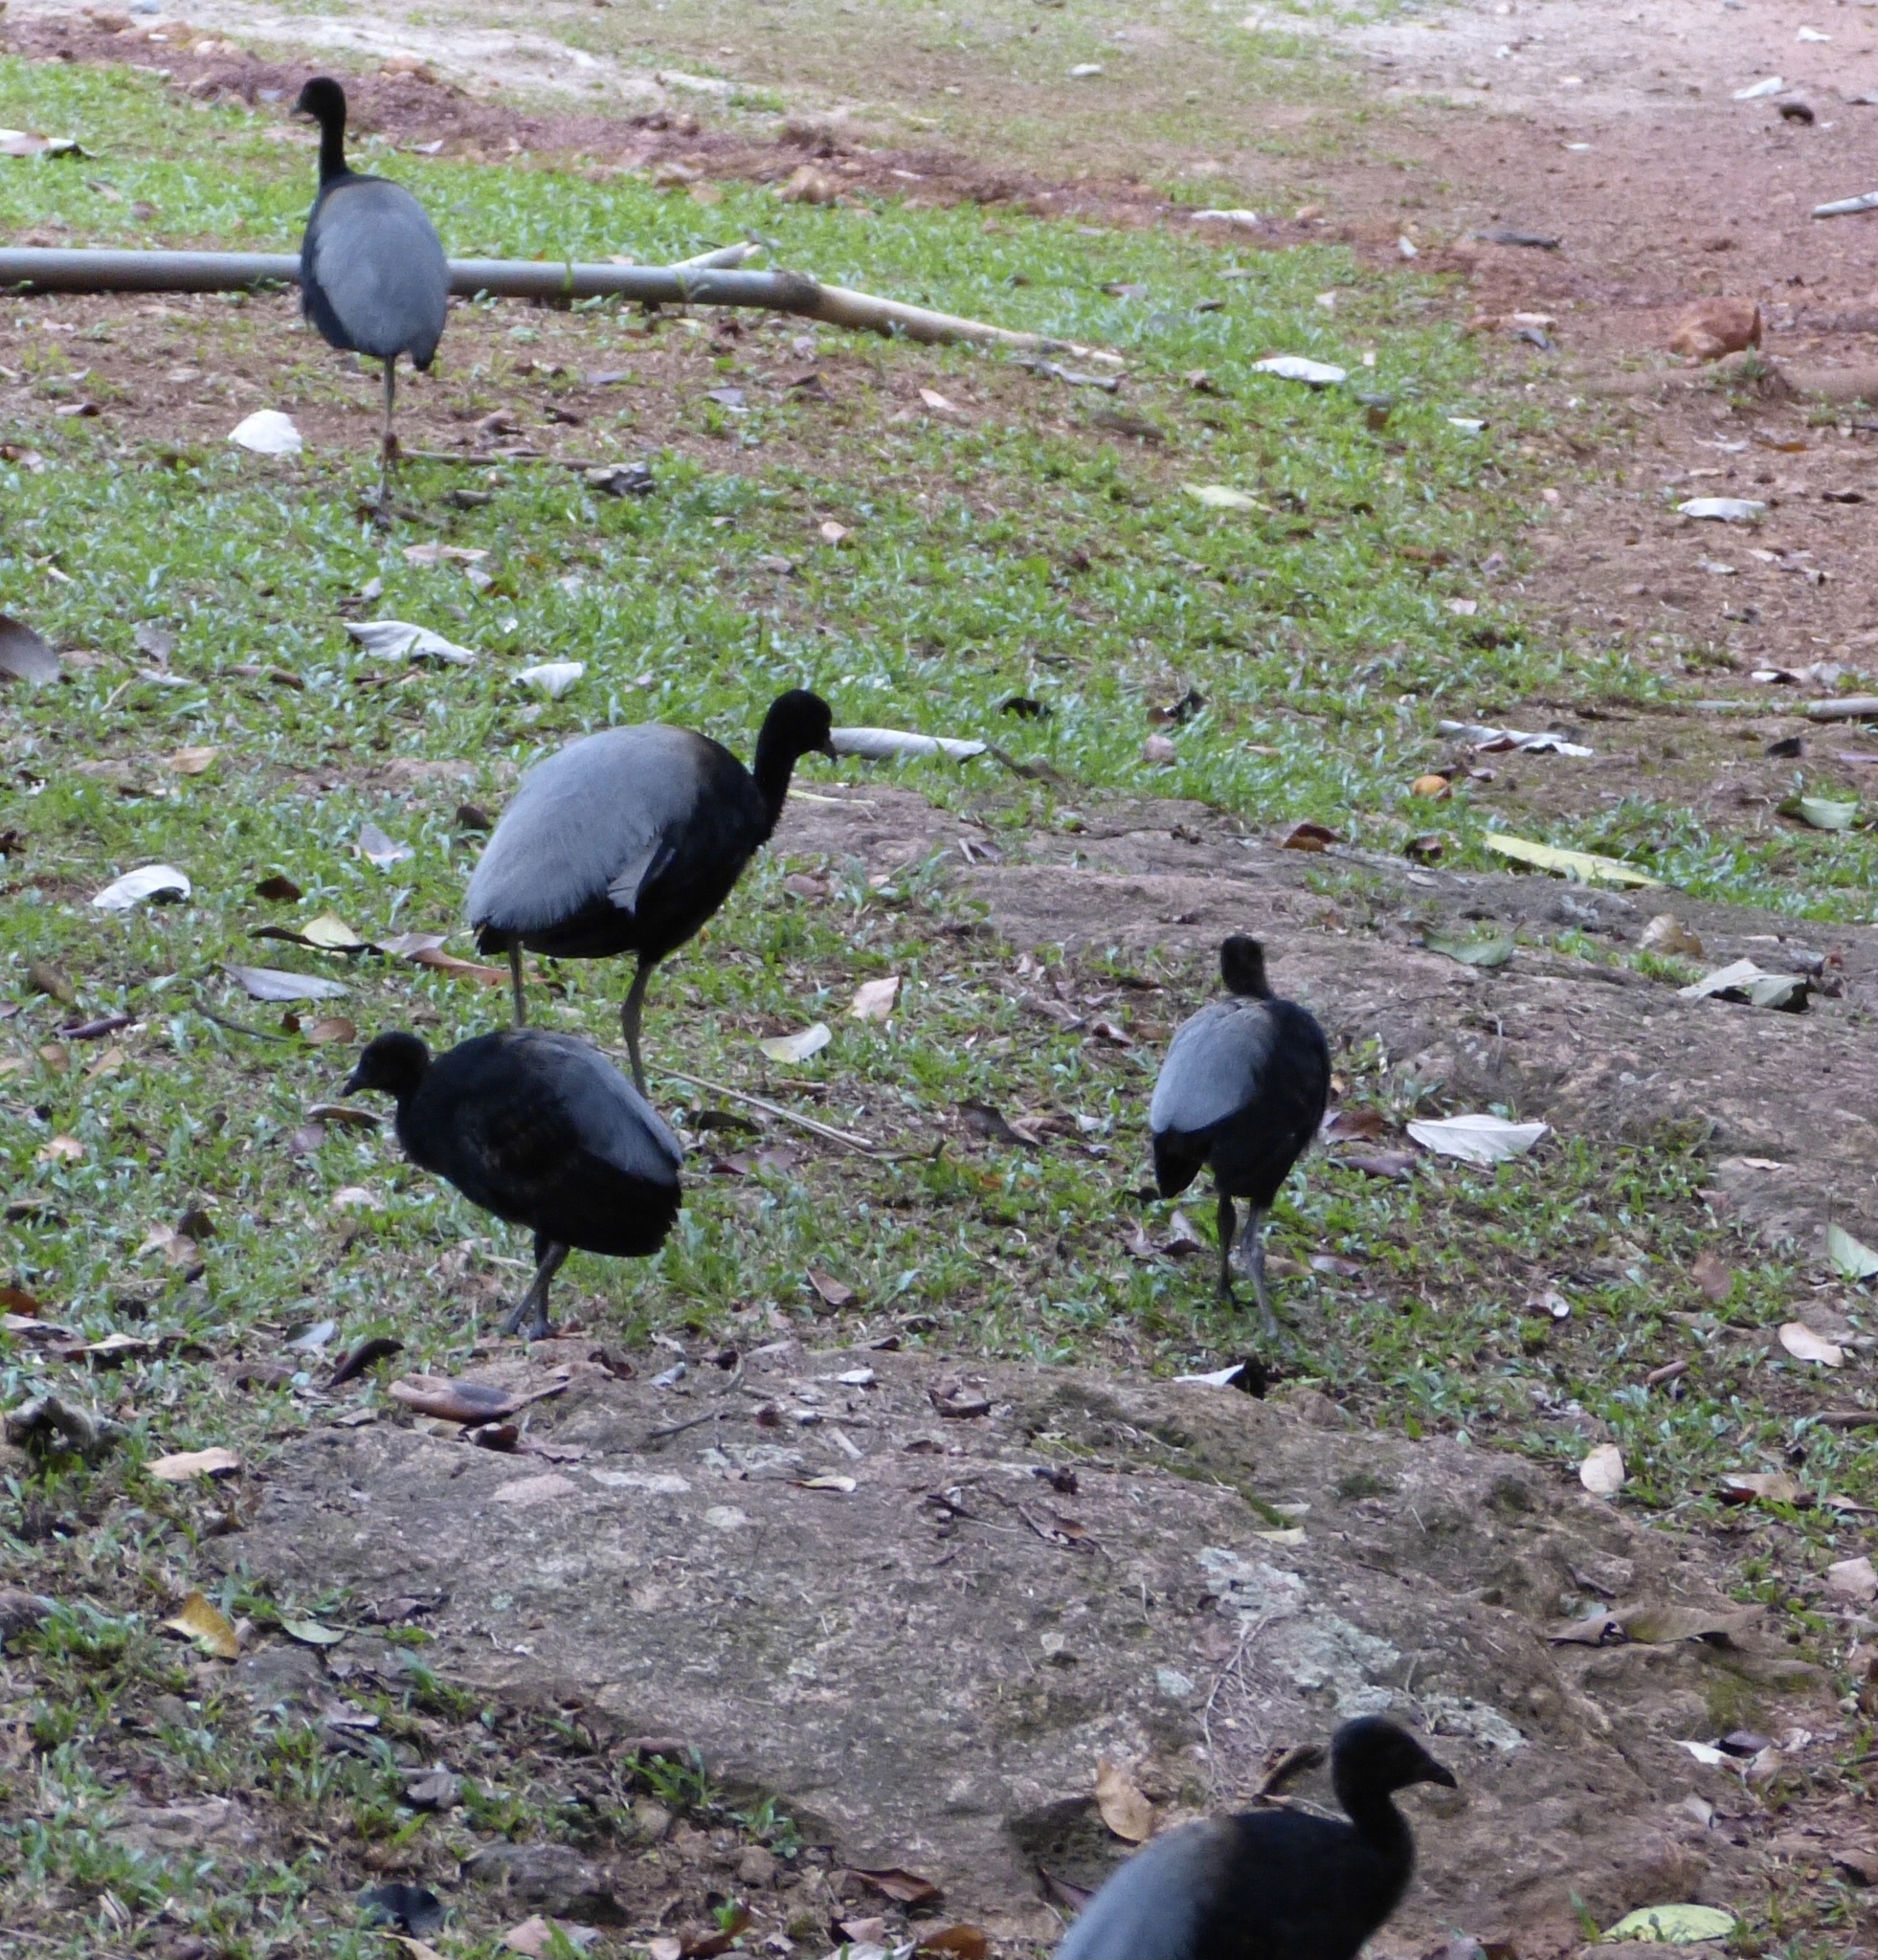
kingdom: Animalia
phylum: Chordata
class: Aves
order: Gruiformes
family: Psophiidae
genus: Psophia
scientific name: Psophia crepitans
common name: Grey-winged trumpeter
